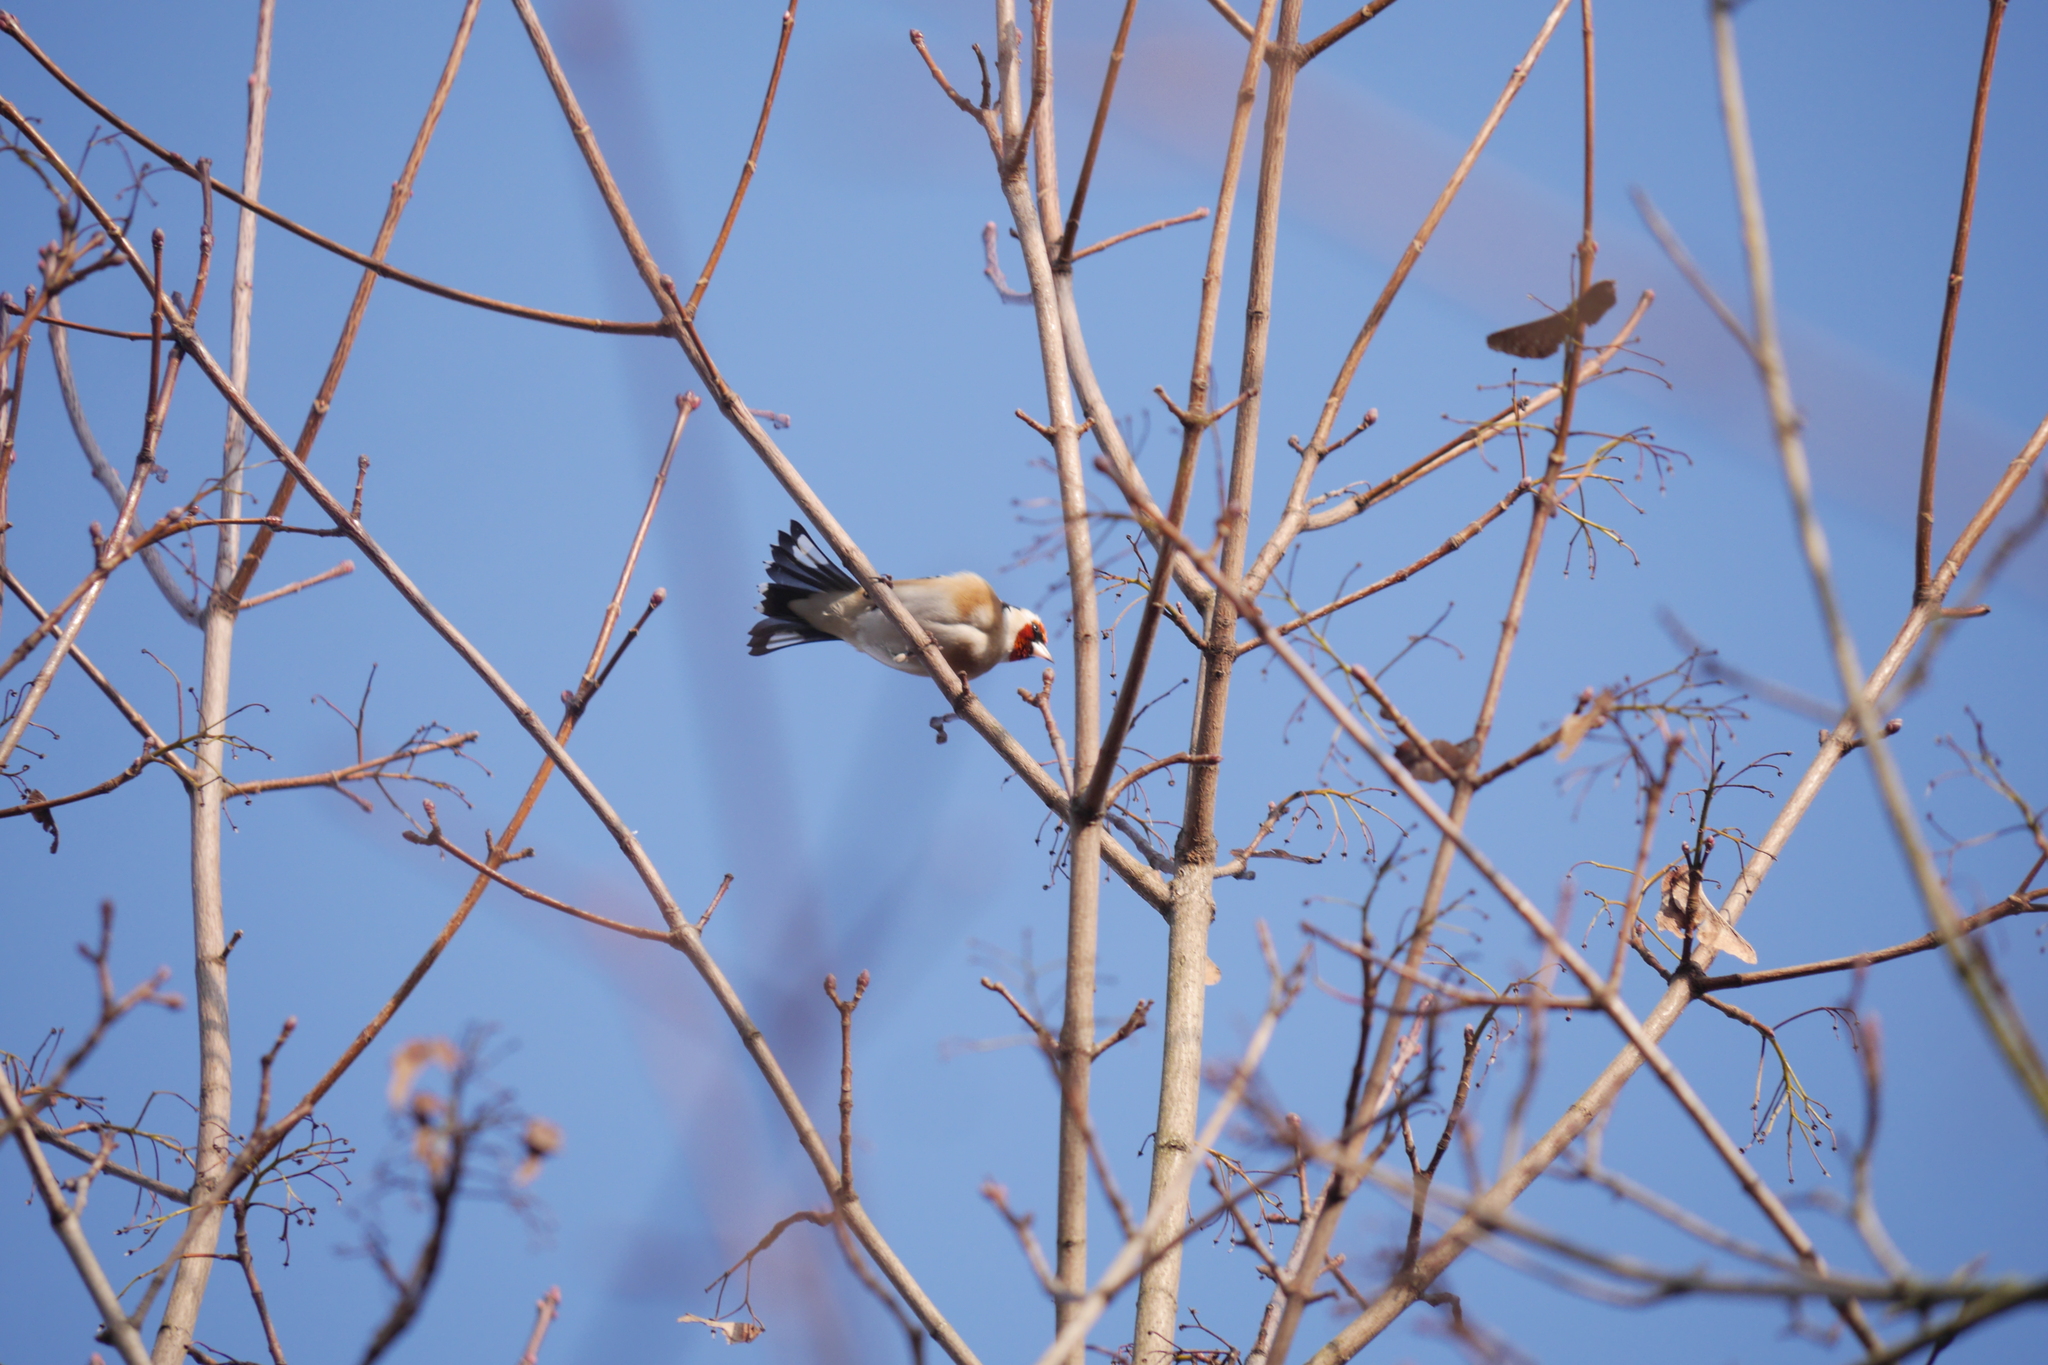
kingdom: Animalia
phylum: Chordata
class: Aves
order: Passeriformes
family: Fringillidae
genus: Carduelis
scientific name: Carduelis carduelis
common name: European goldfinch
